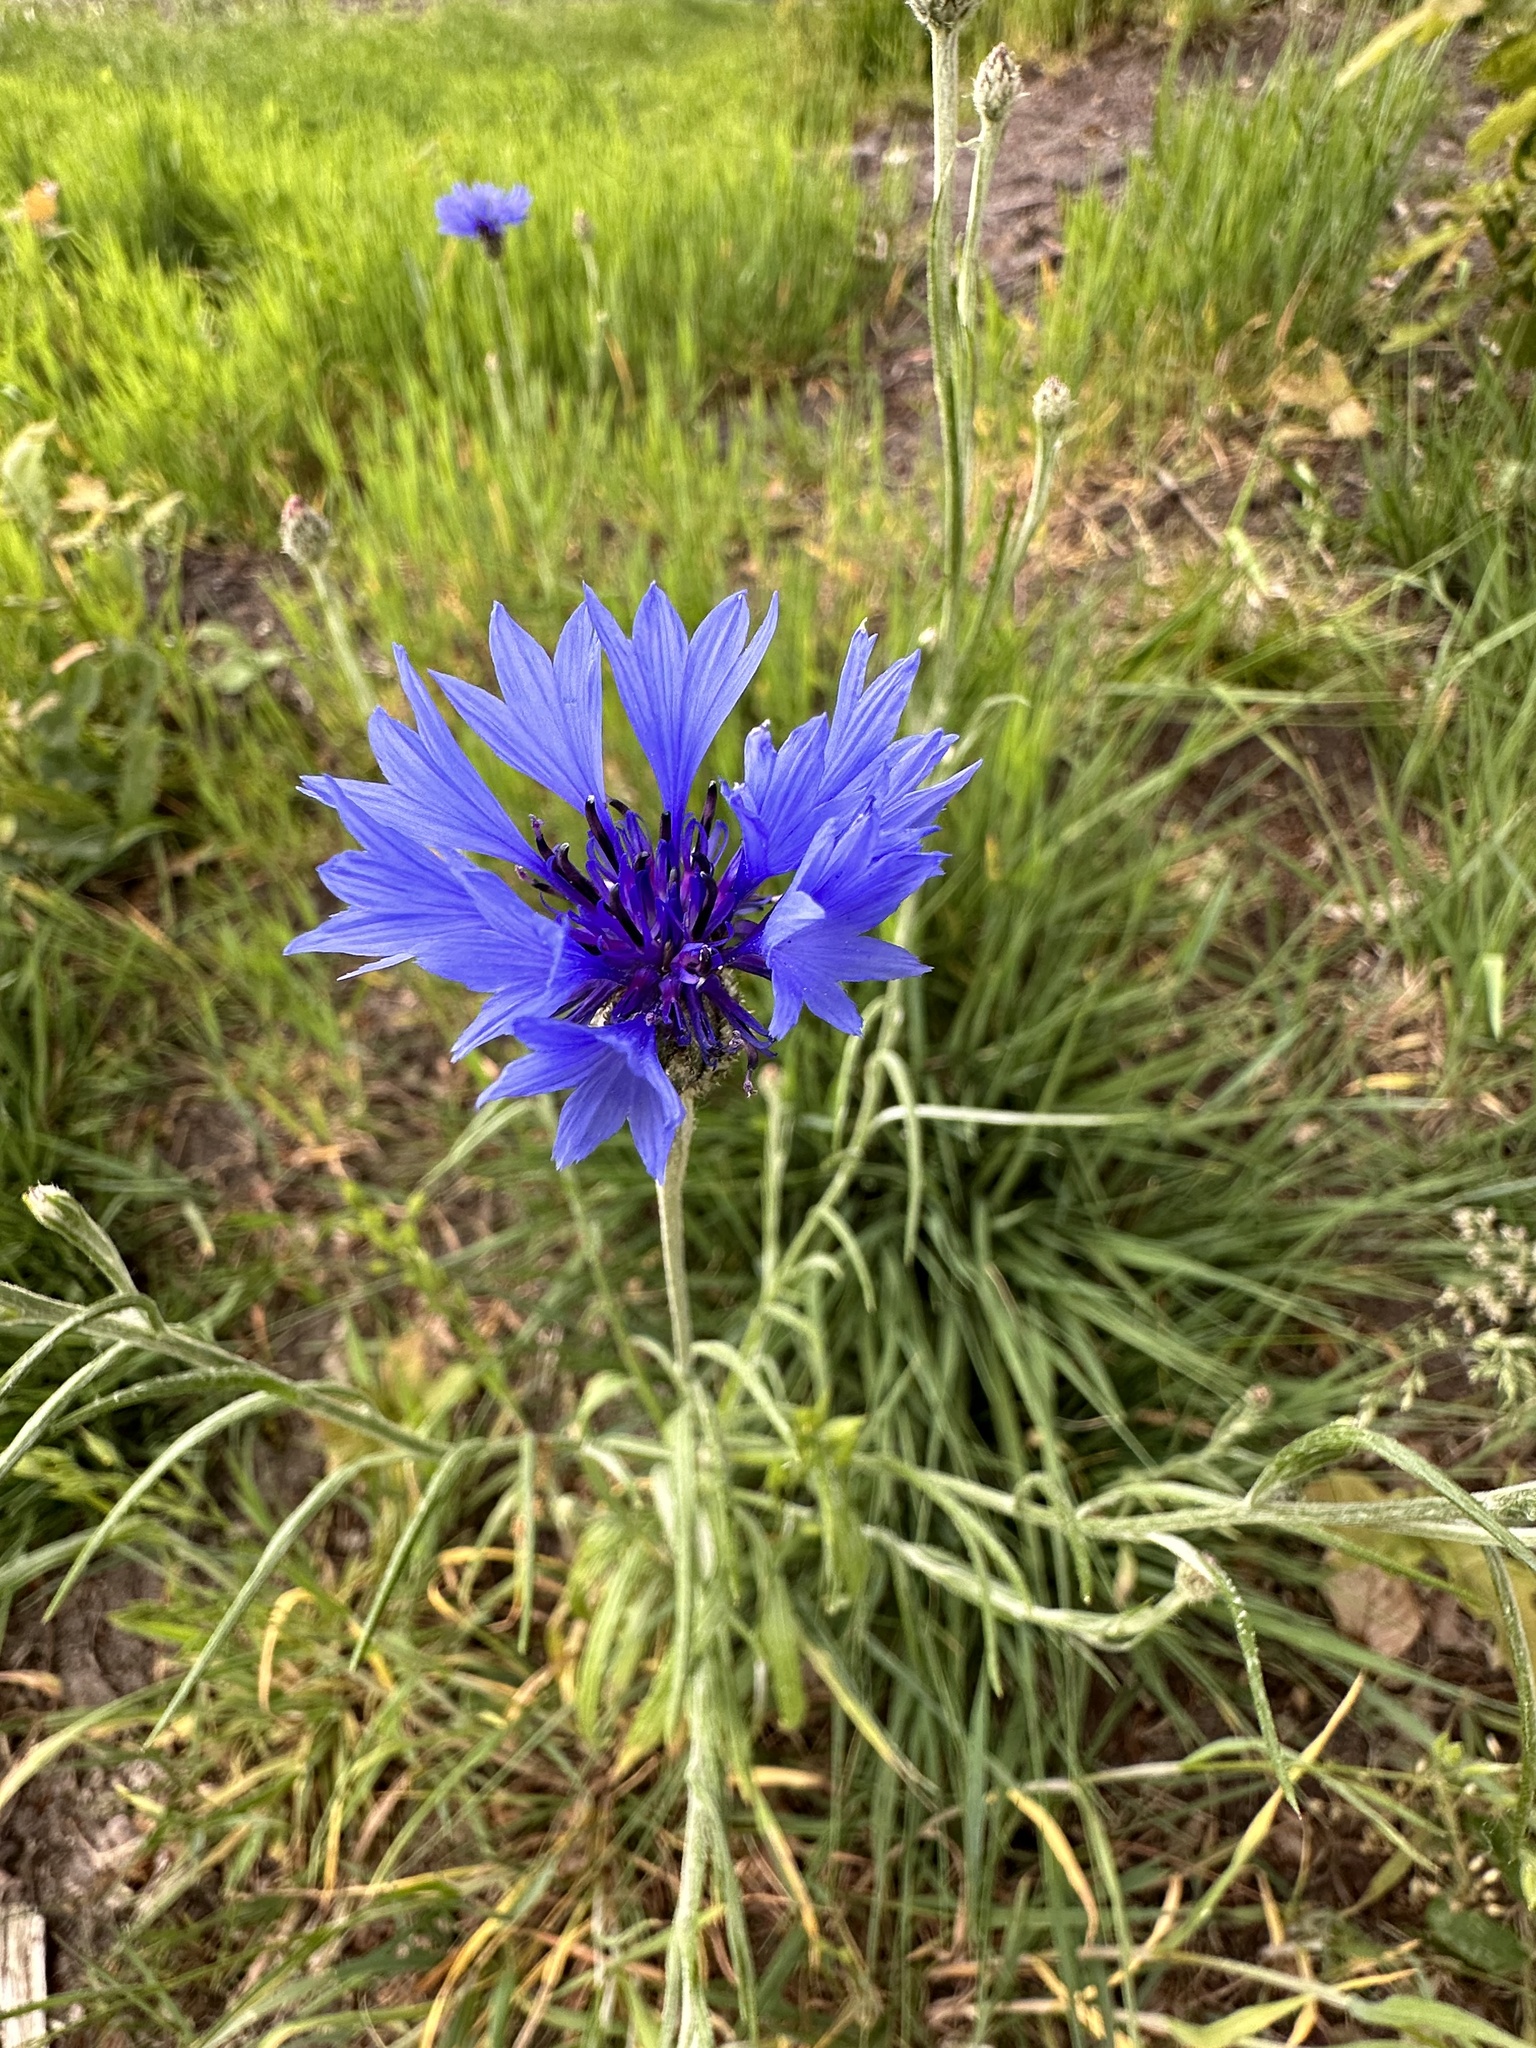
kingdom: Plantae
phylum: Tracheophyta
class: Magnoliopsida
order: Asterales
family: Asteraceae
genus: Centaurea
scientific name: Centaurea cyanus
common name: Cornflower
